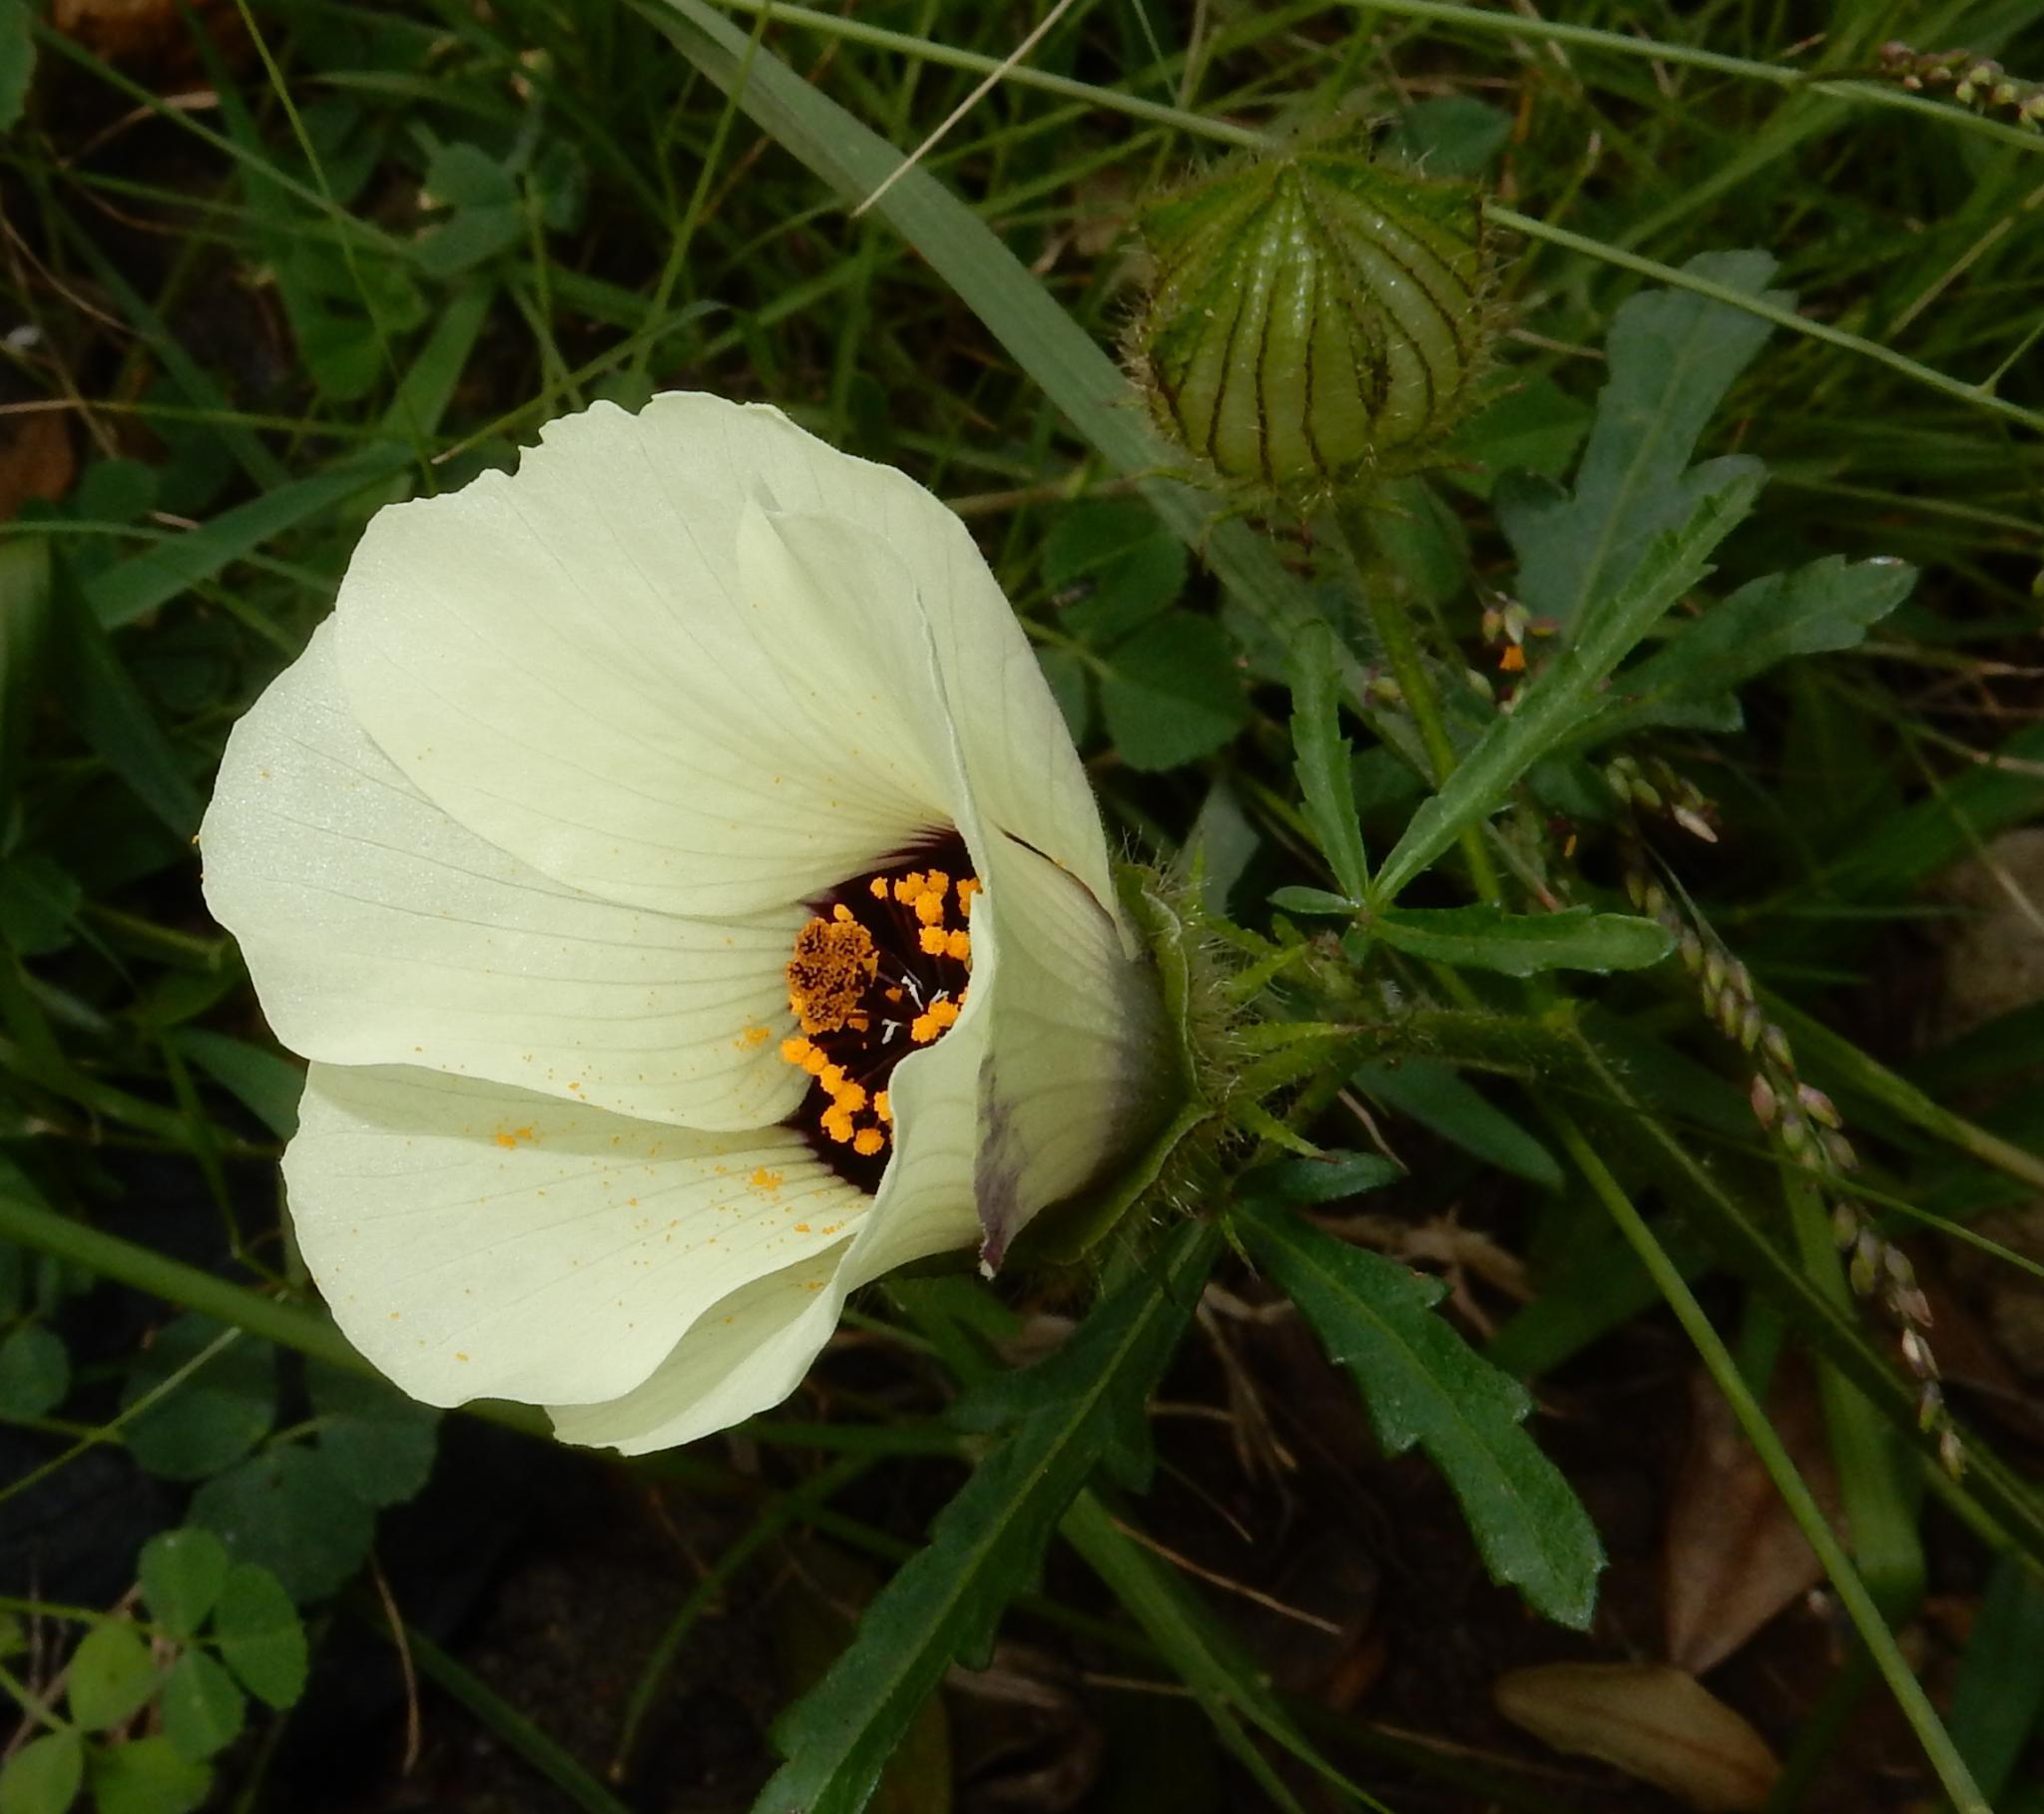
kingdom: Plantae
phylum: Tracheophyta
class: Magnoliopsida
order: Malvales
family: Malvaceae
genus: Hibiscus
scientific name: Hibiscus trionum
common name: Bladder ketmia
